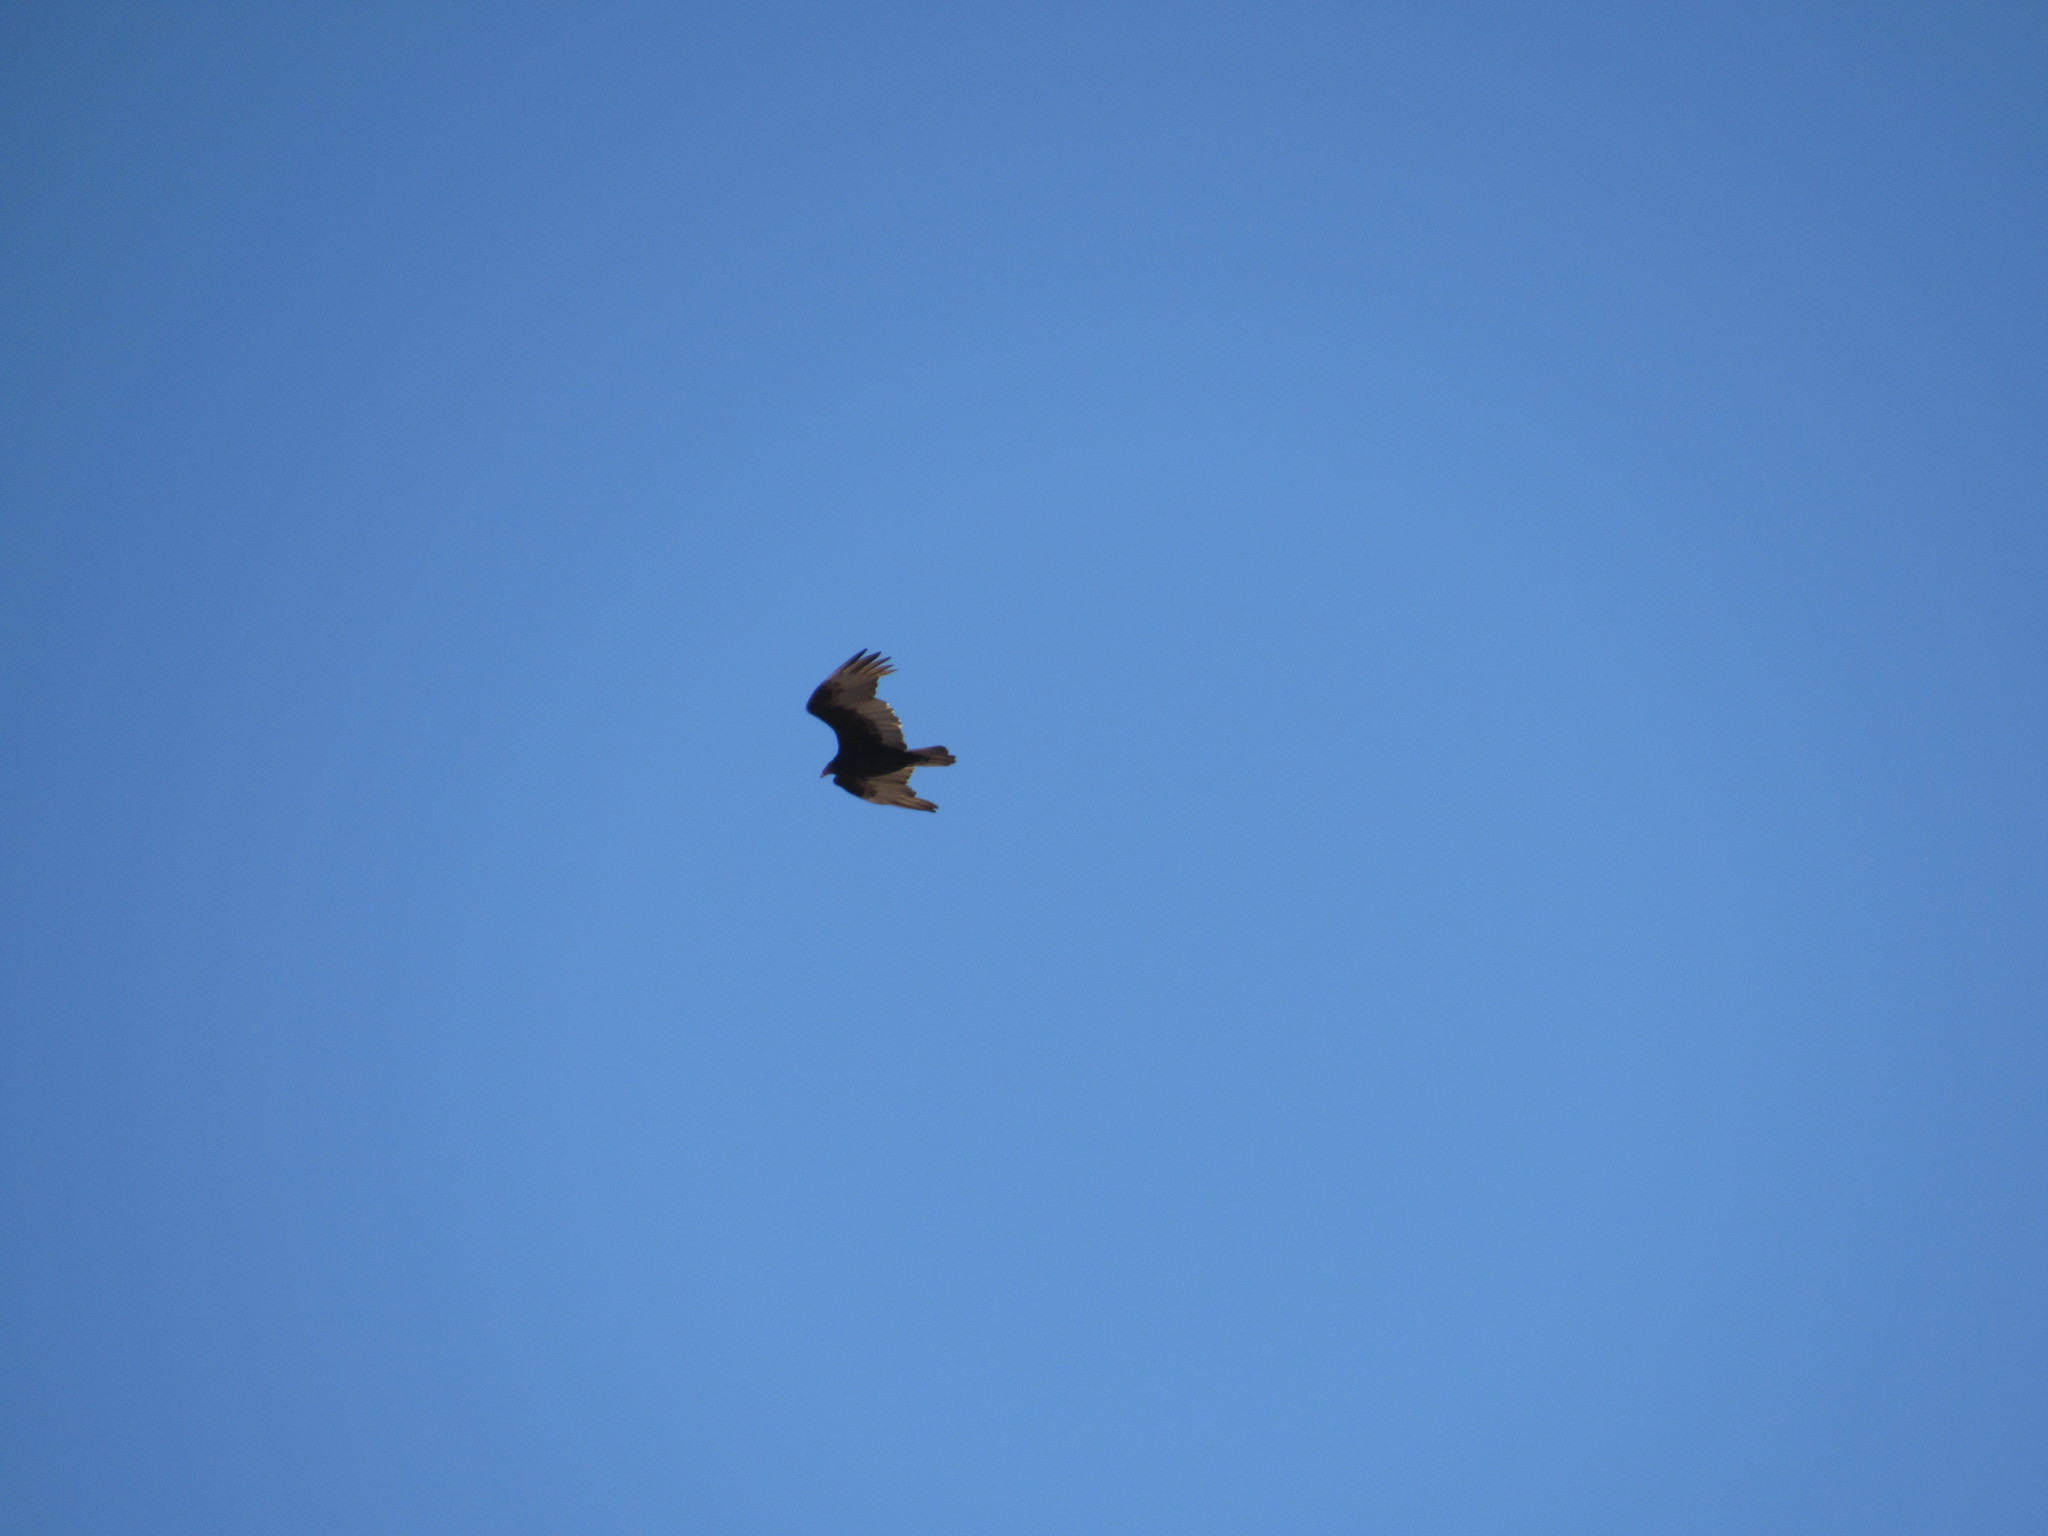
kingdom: Animalia
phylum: Chordata
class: Aves
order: Accipitriformes
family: Cathartidae
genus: Cathartes
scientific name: Cathartes aura
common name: Turkey vulture
